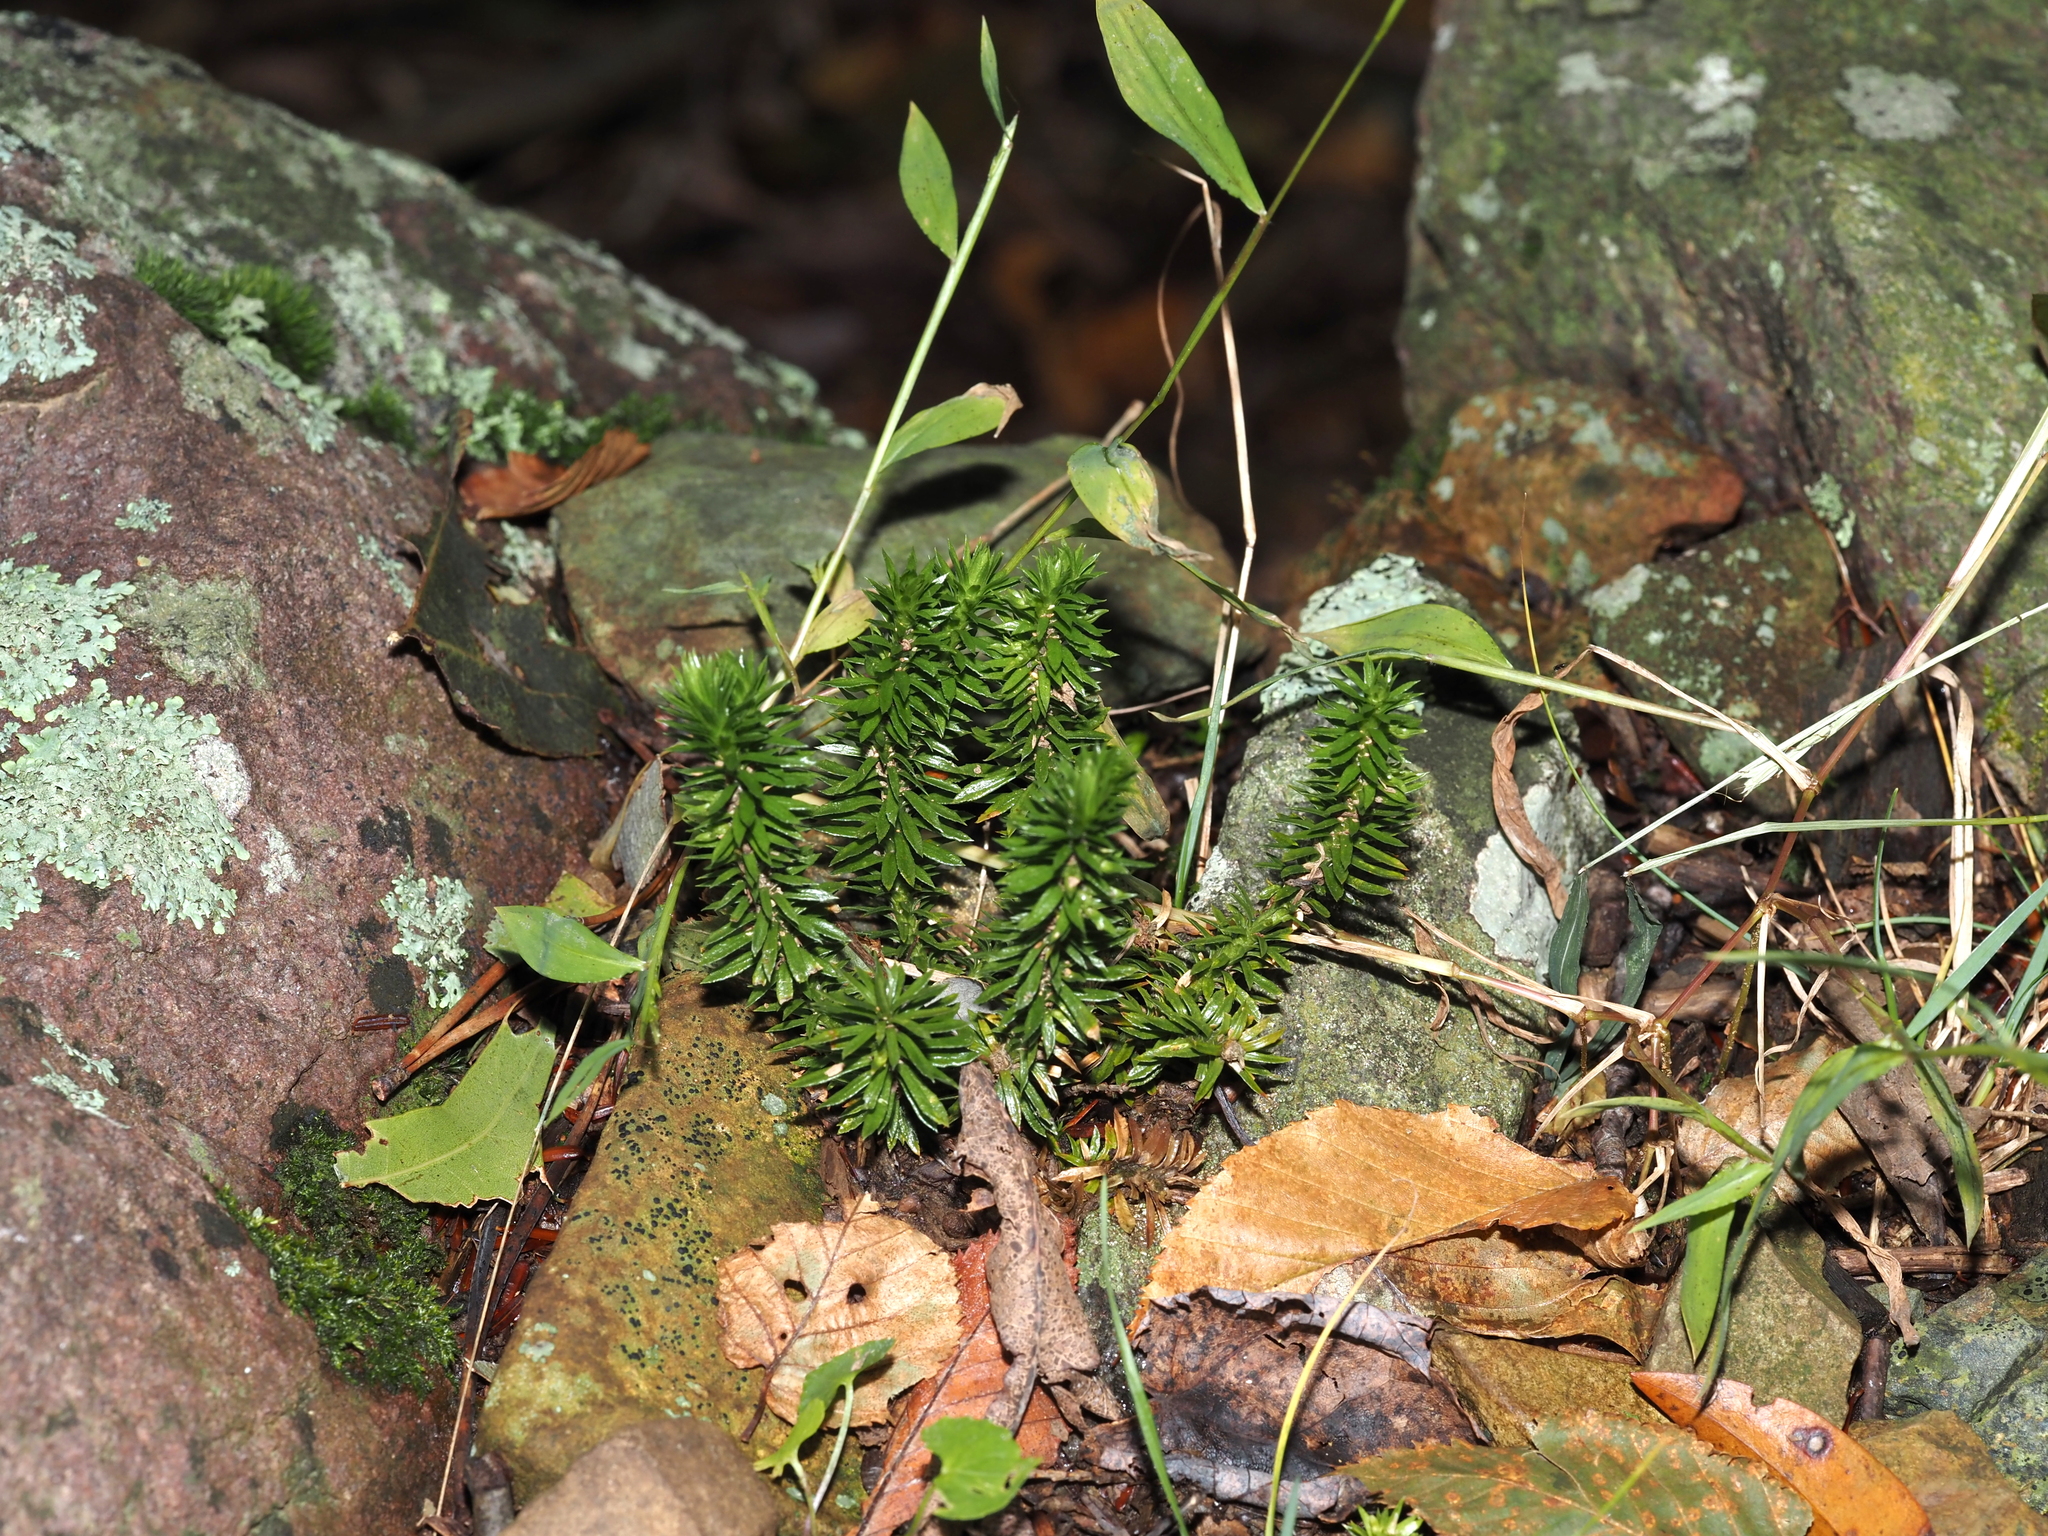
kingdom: Plantae
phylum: Tracheophyta
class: Lycopodiopsida
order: Lycopodiales
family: Lycopodiaceae
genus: Huperzia
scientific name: Huperzia lucidula
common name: Shining clubmoss
